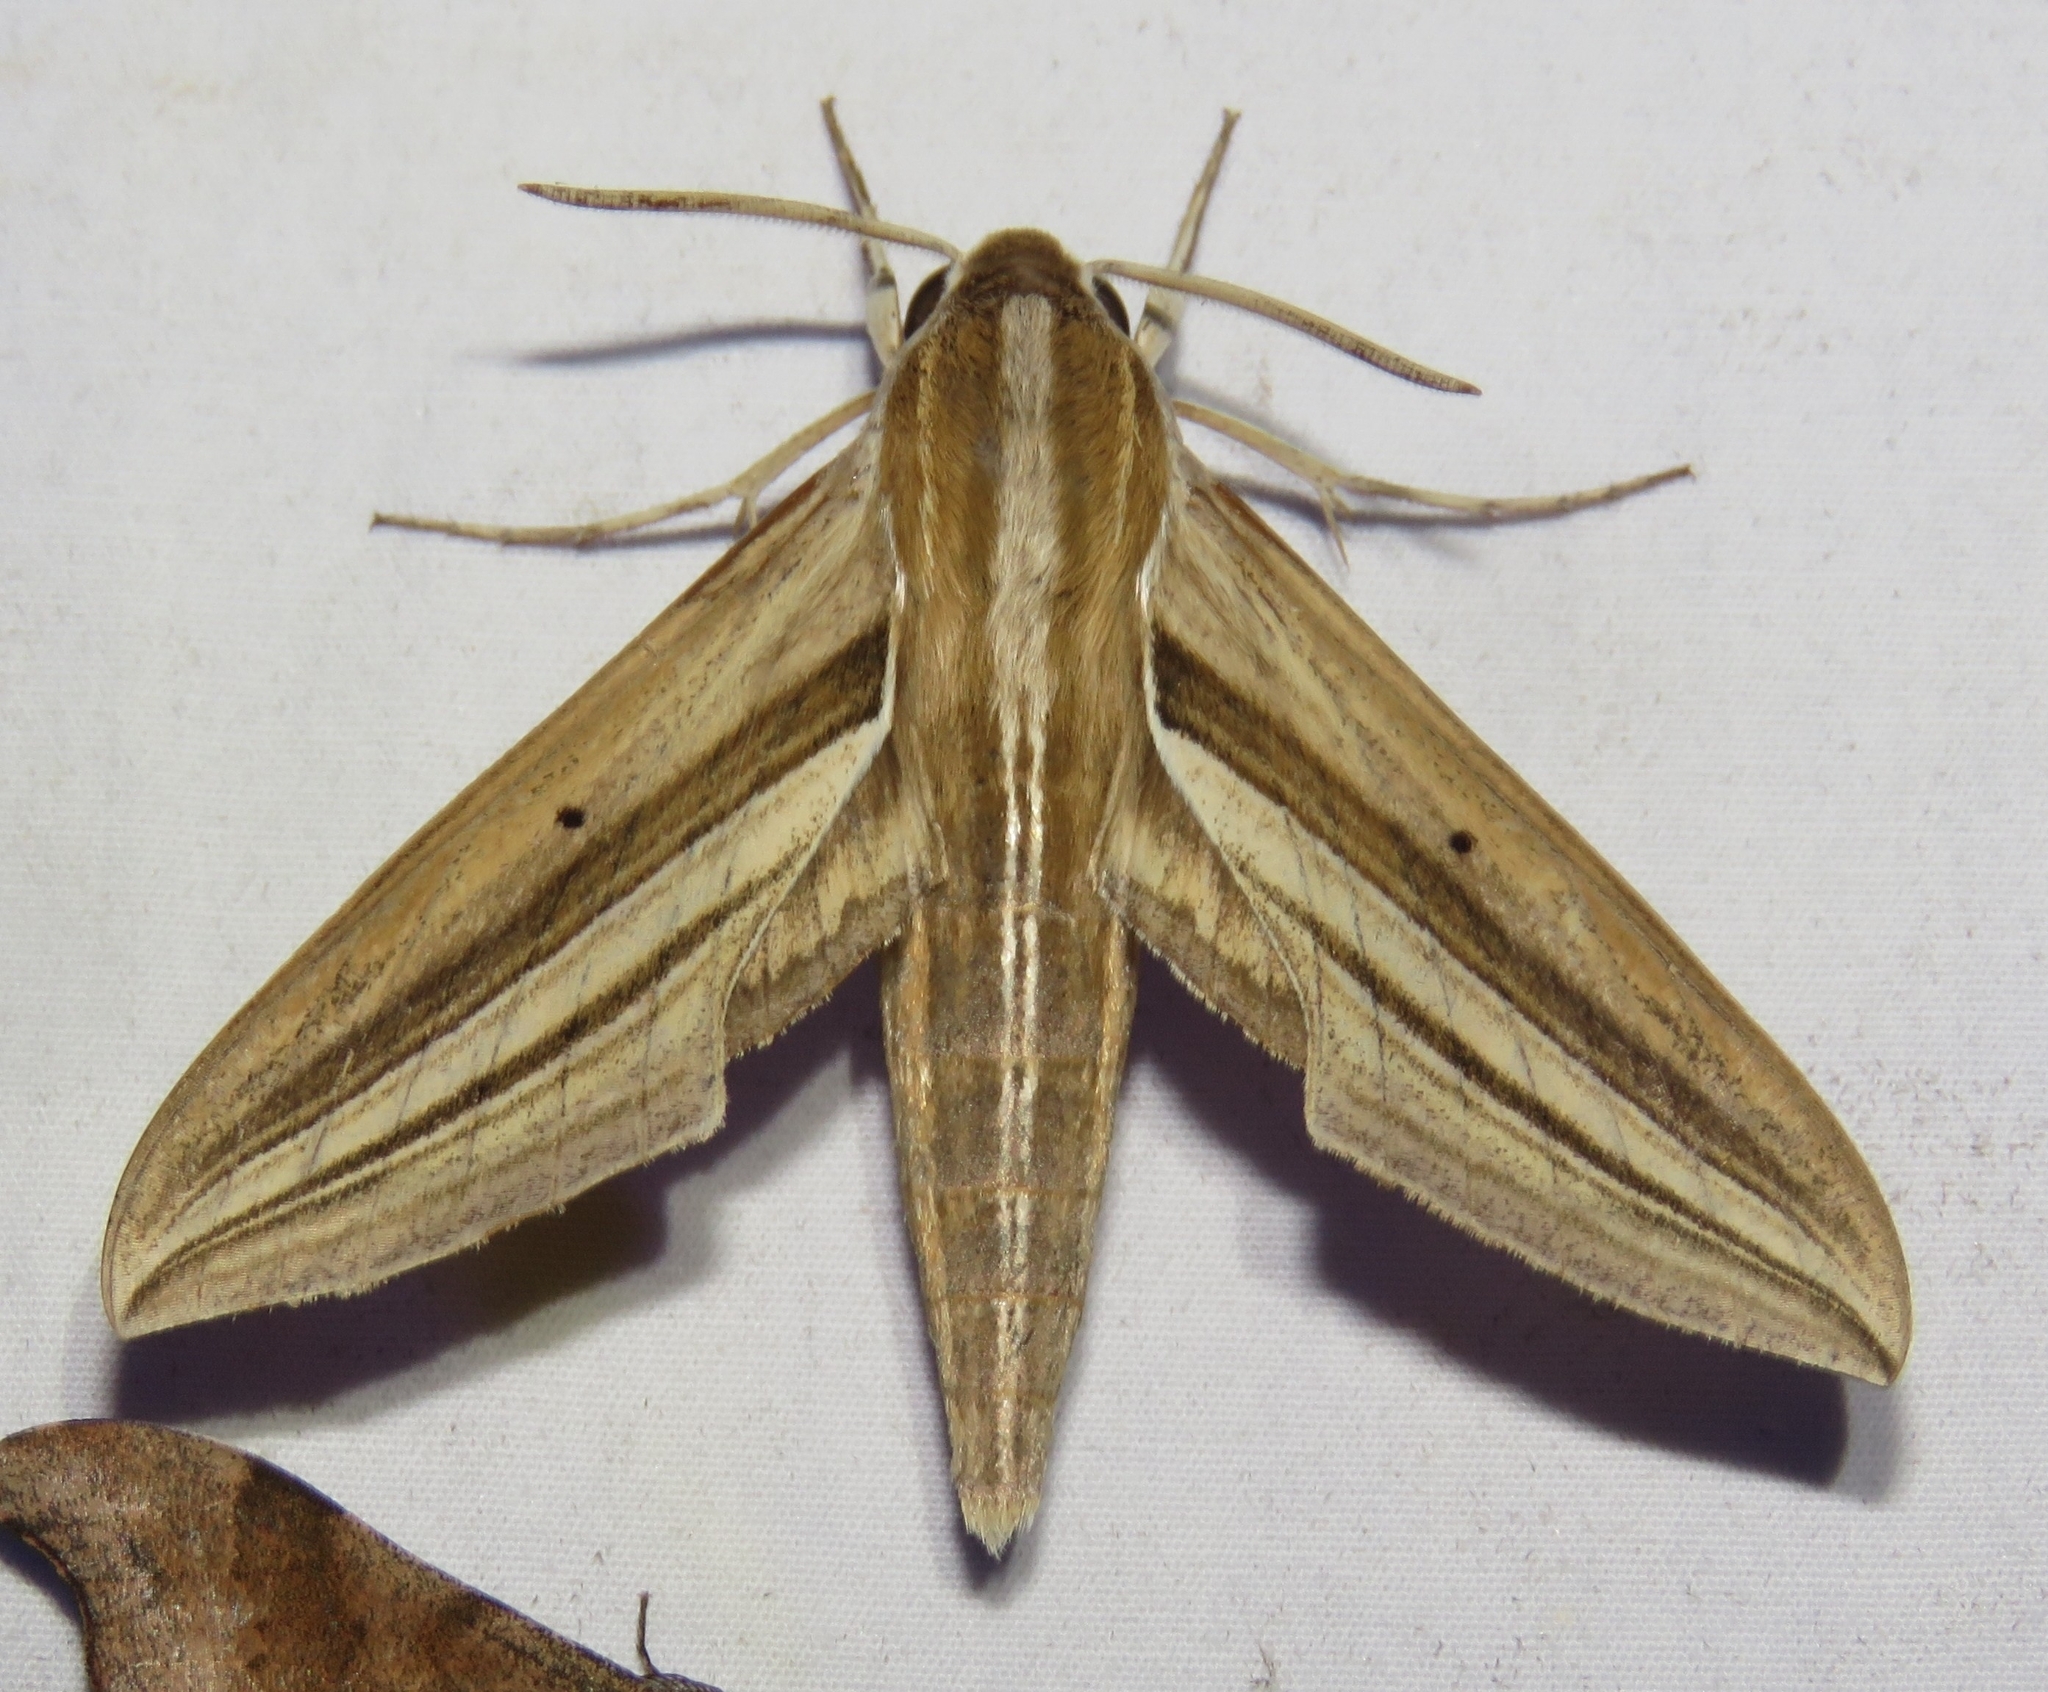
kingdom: Animalia
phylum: Arthropoda
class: Insecta
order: Lepidoptera
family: Sphingidae
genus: Theretra
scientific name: Theretra oldenlandiae
